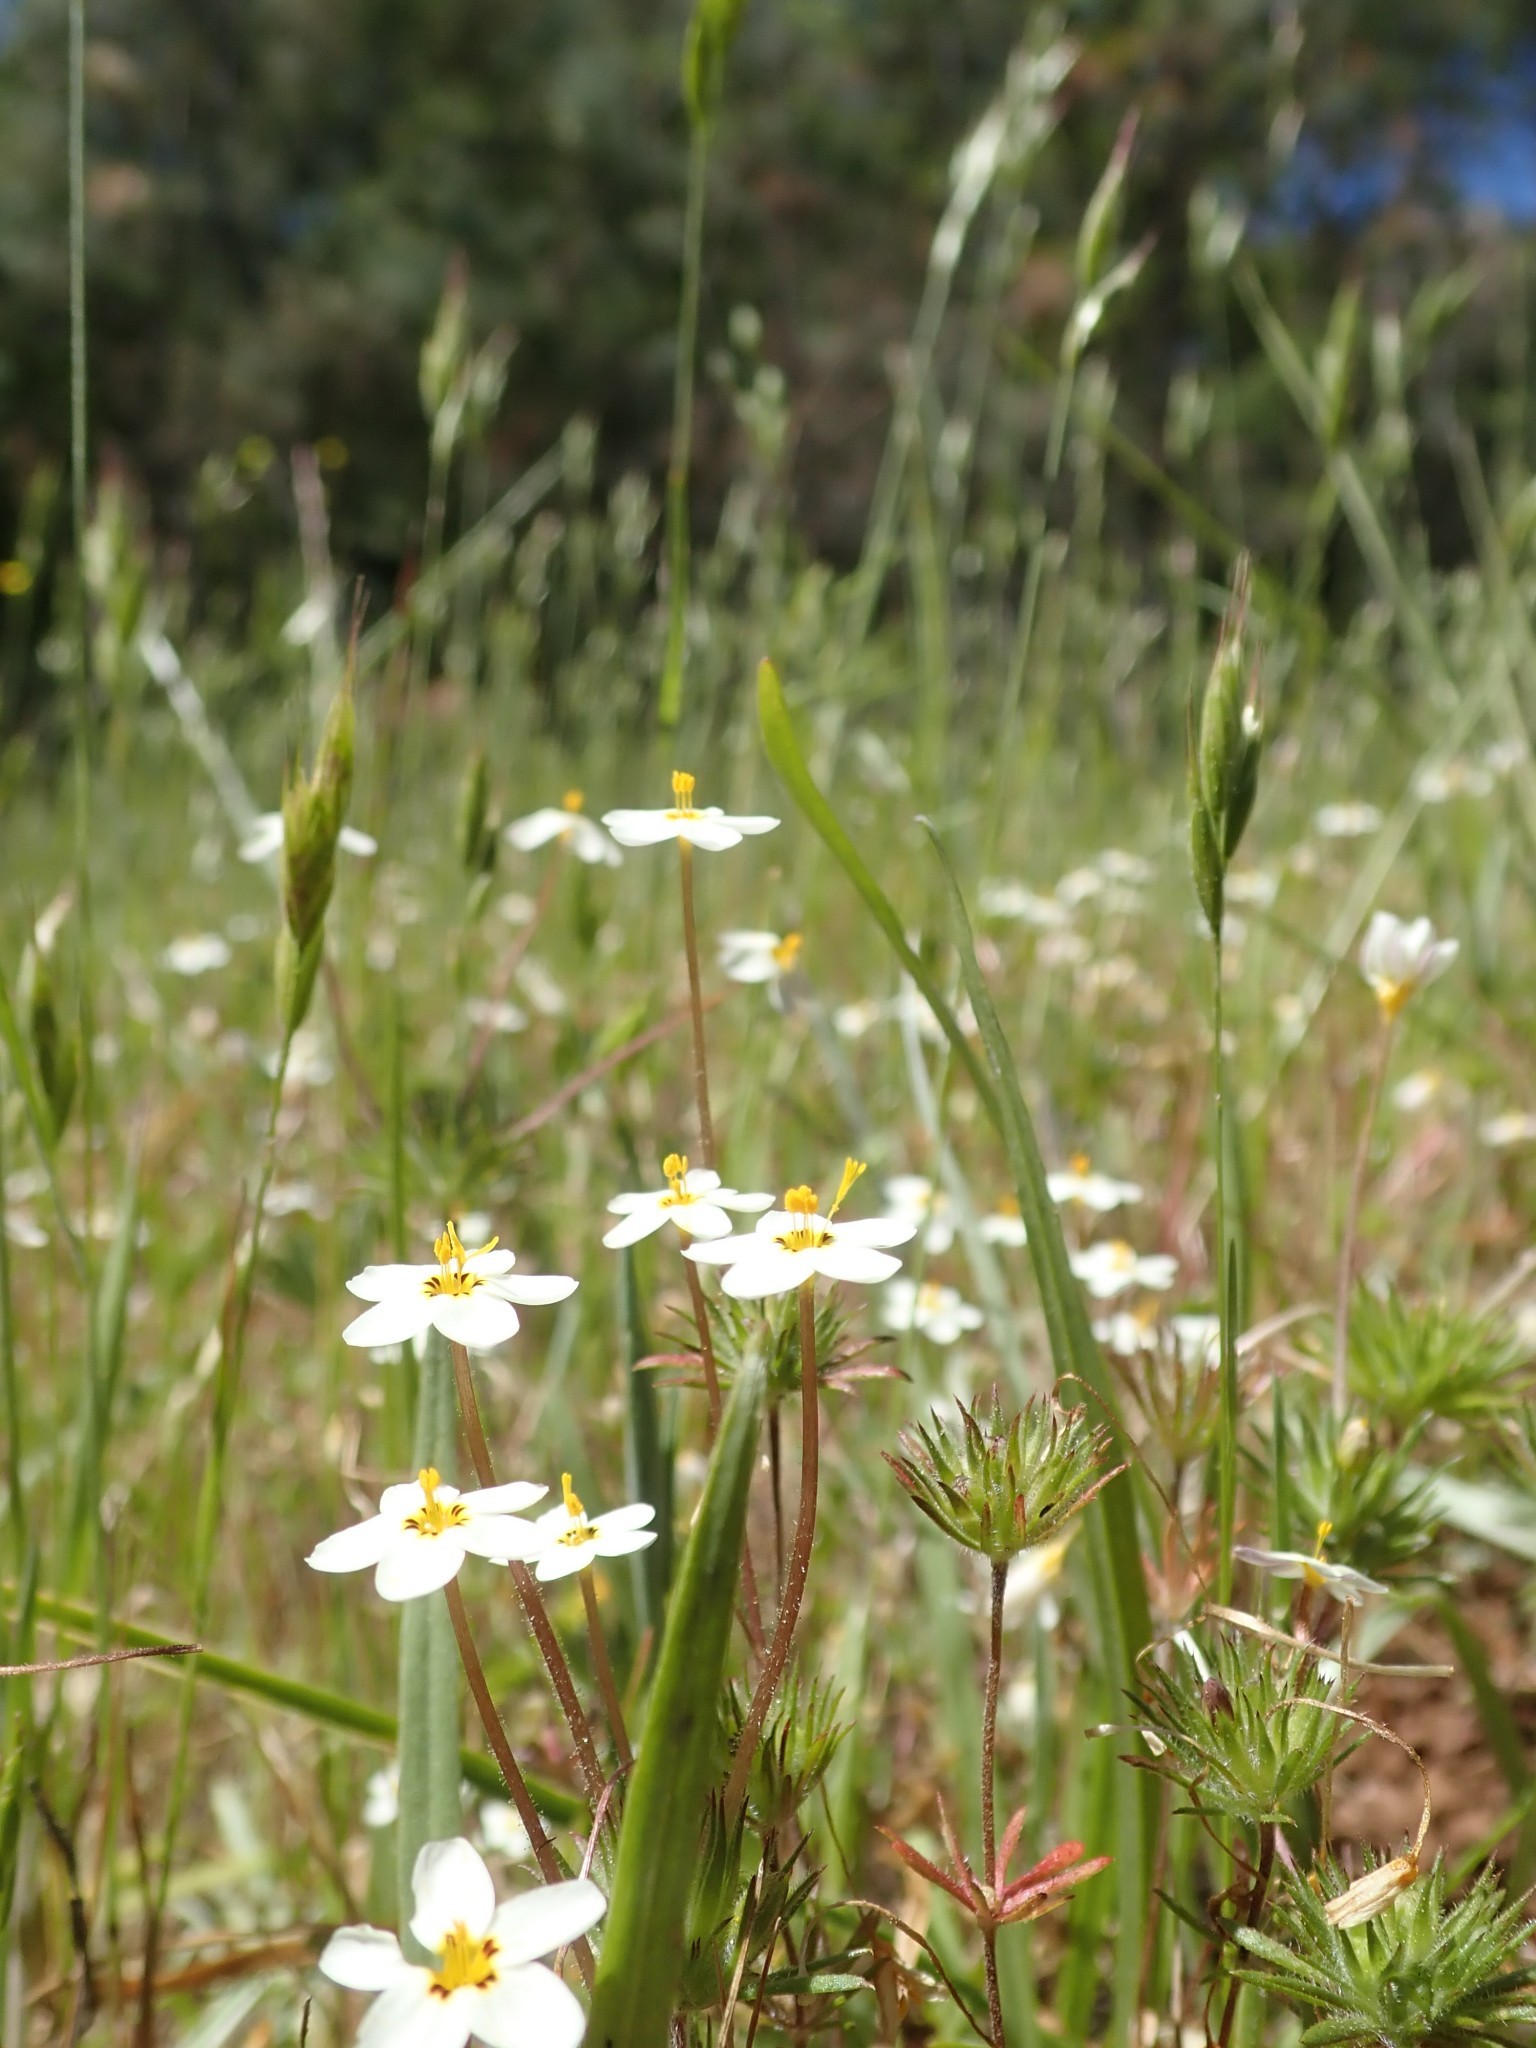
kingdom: Plantae
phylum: Tracheophyta
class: Magnoliopsida
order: Ericales
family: Polemoniaceae
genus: Leptosiphon
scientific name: Leptosiphon parviflorus
